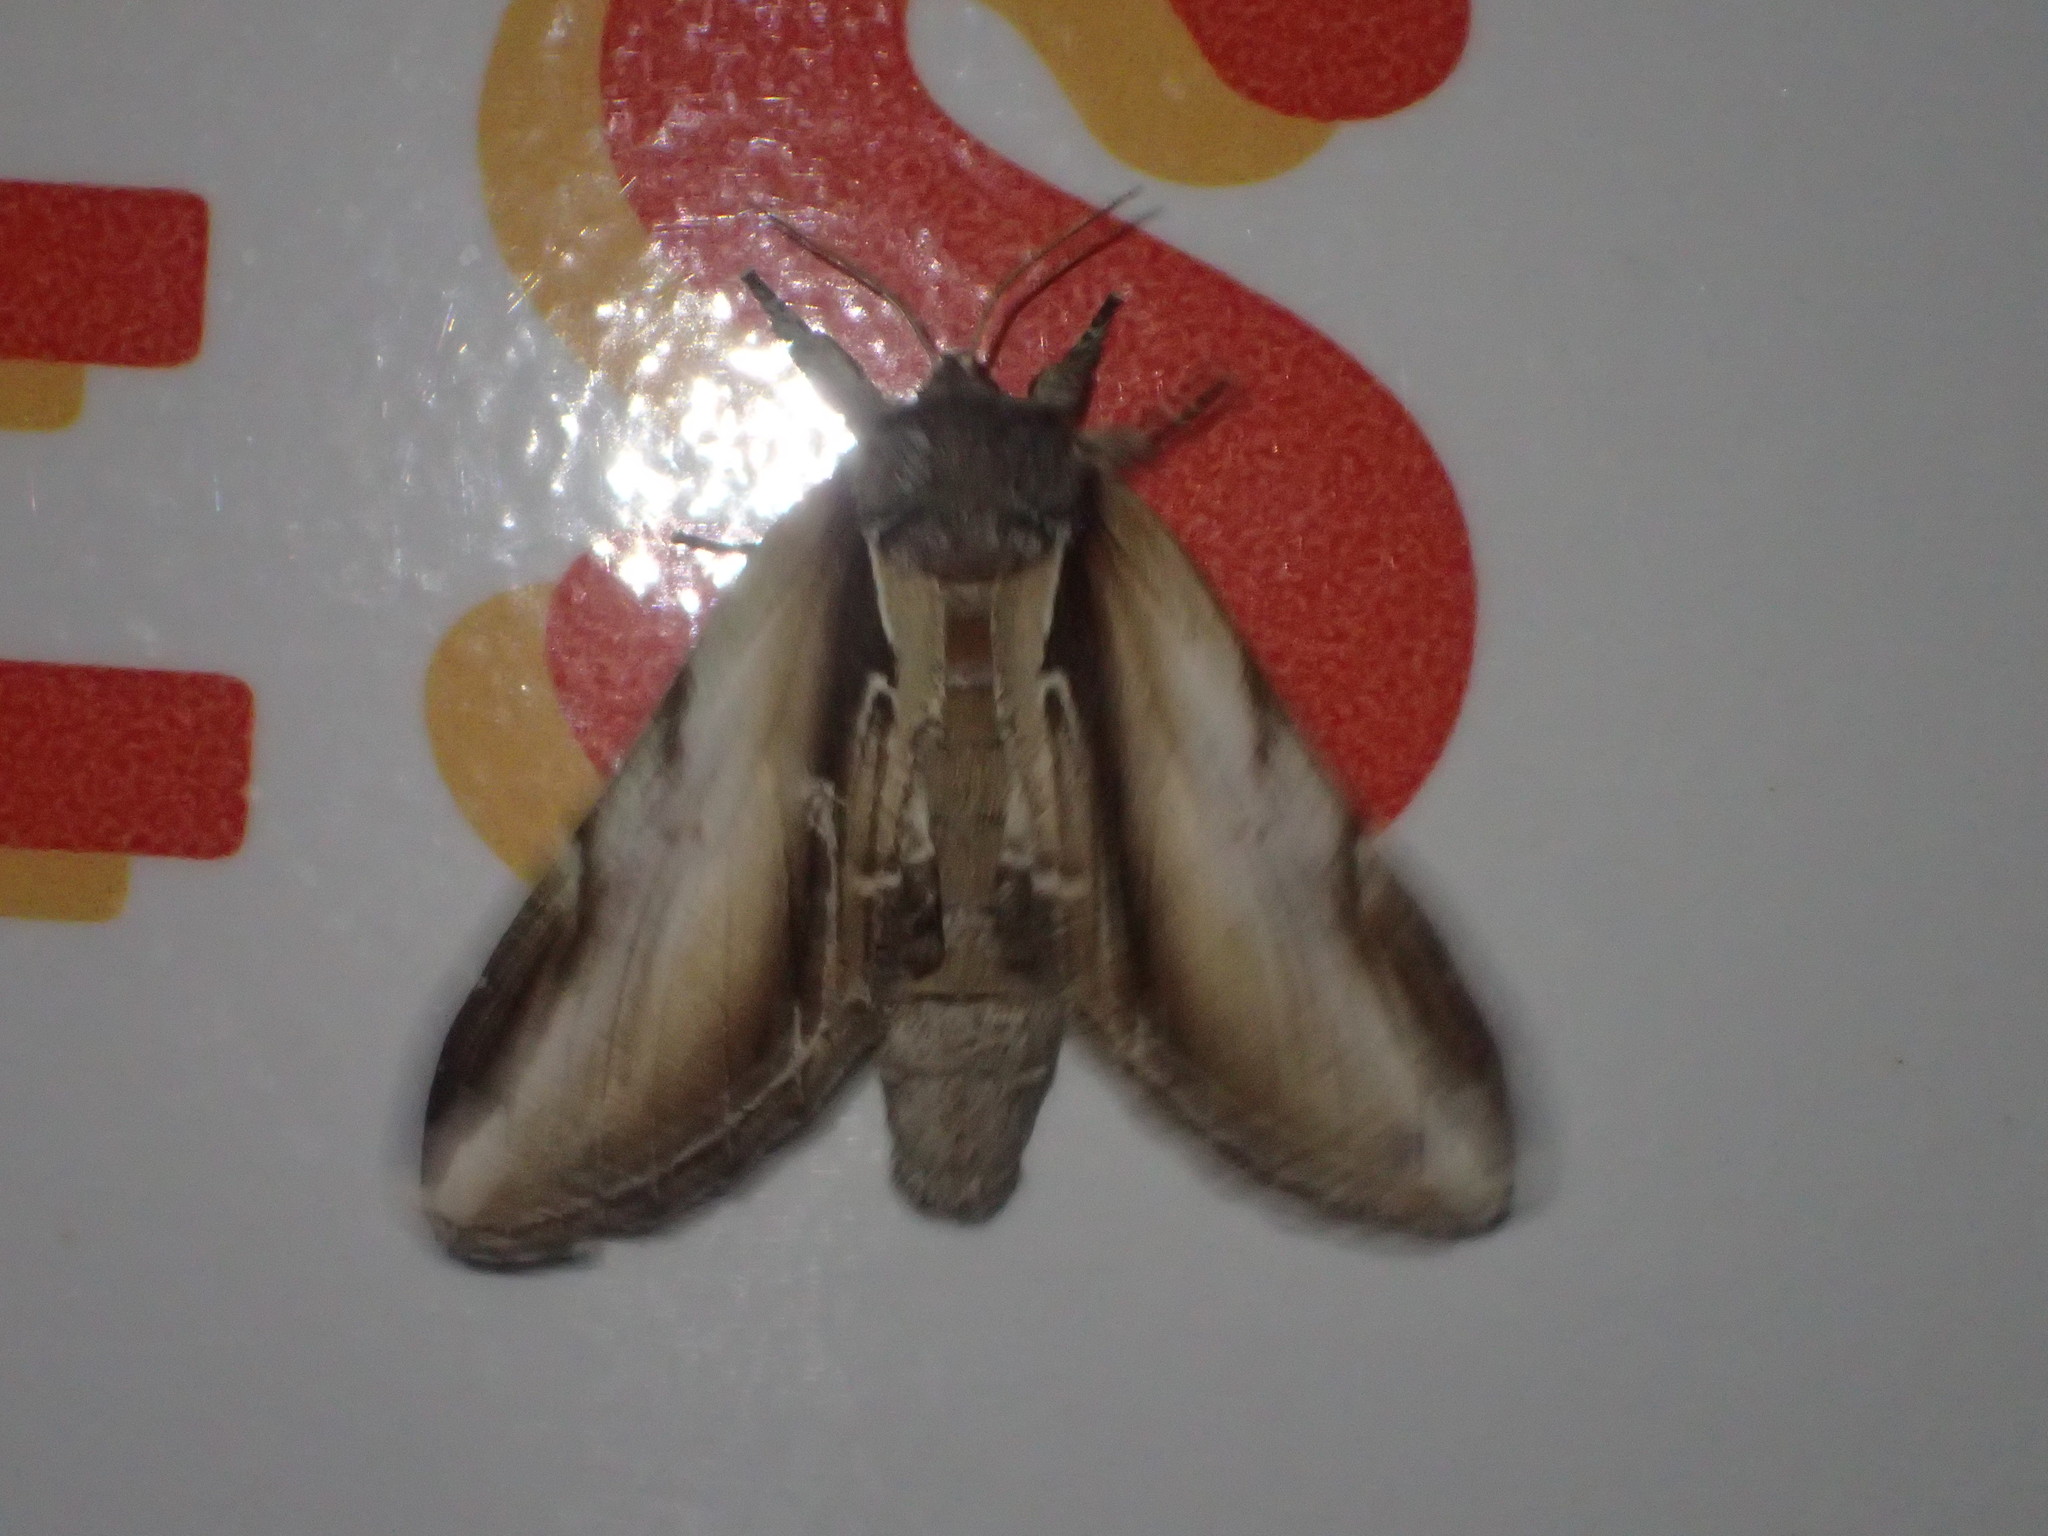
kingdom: Animalia
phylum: Arthropoda
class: Insecta
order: Lepidoptera
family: Notodontidae
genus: Pheosia
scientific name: Pheosia rimosa
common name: Black-rimmed prominent
